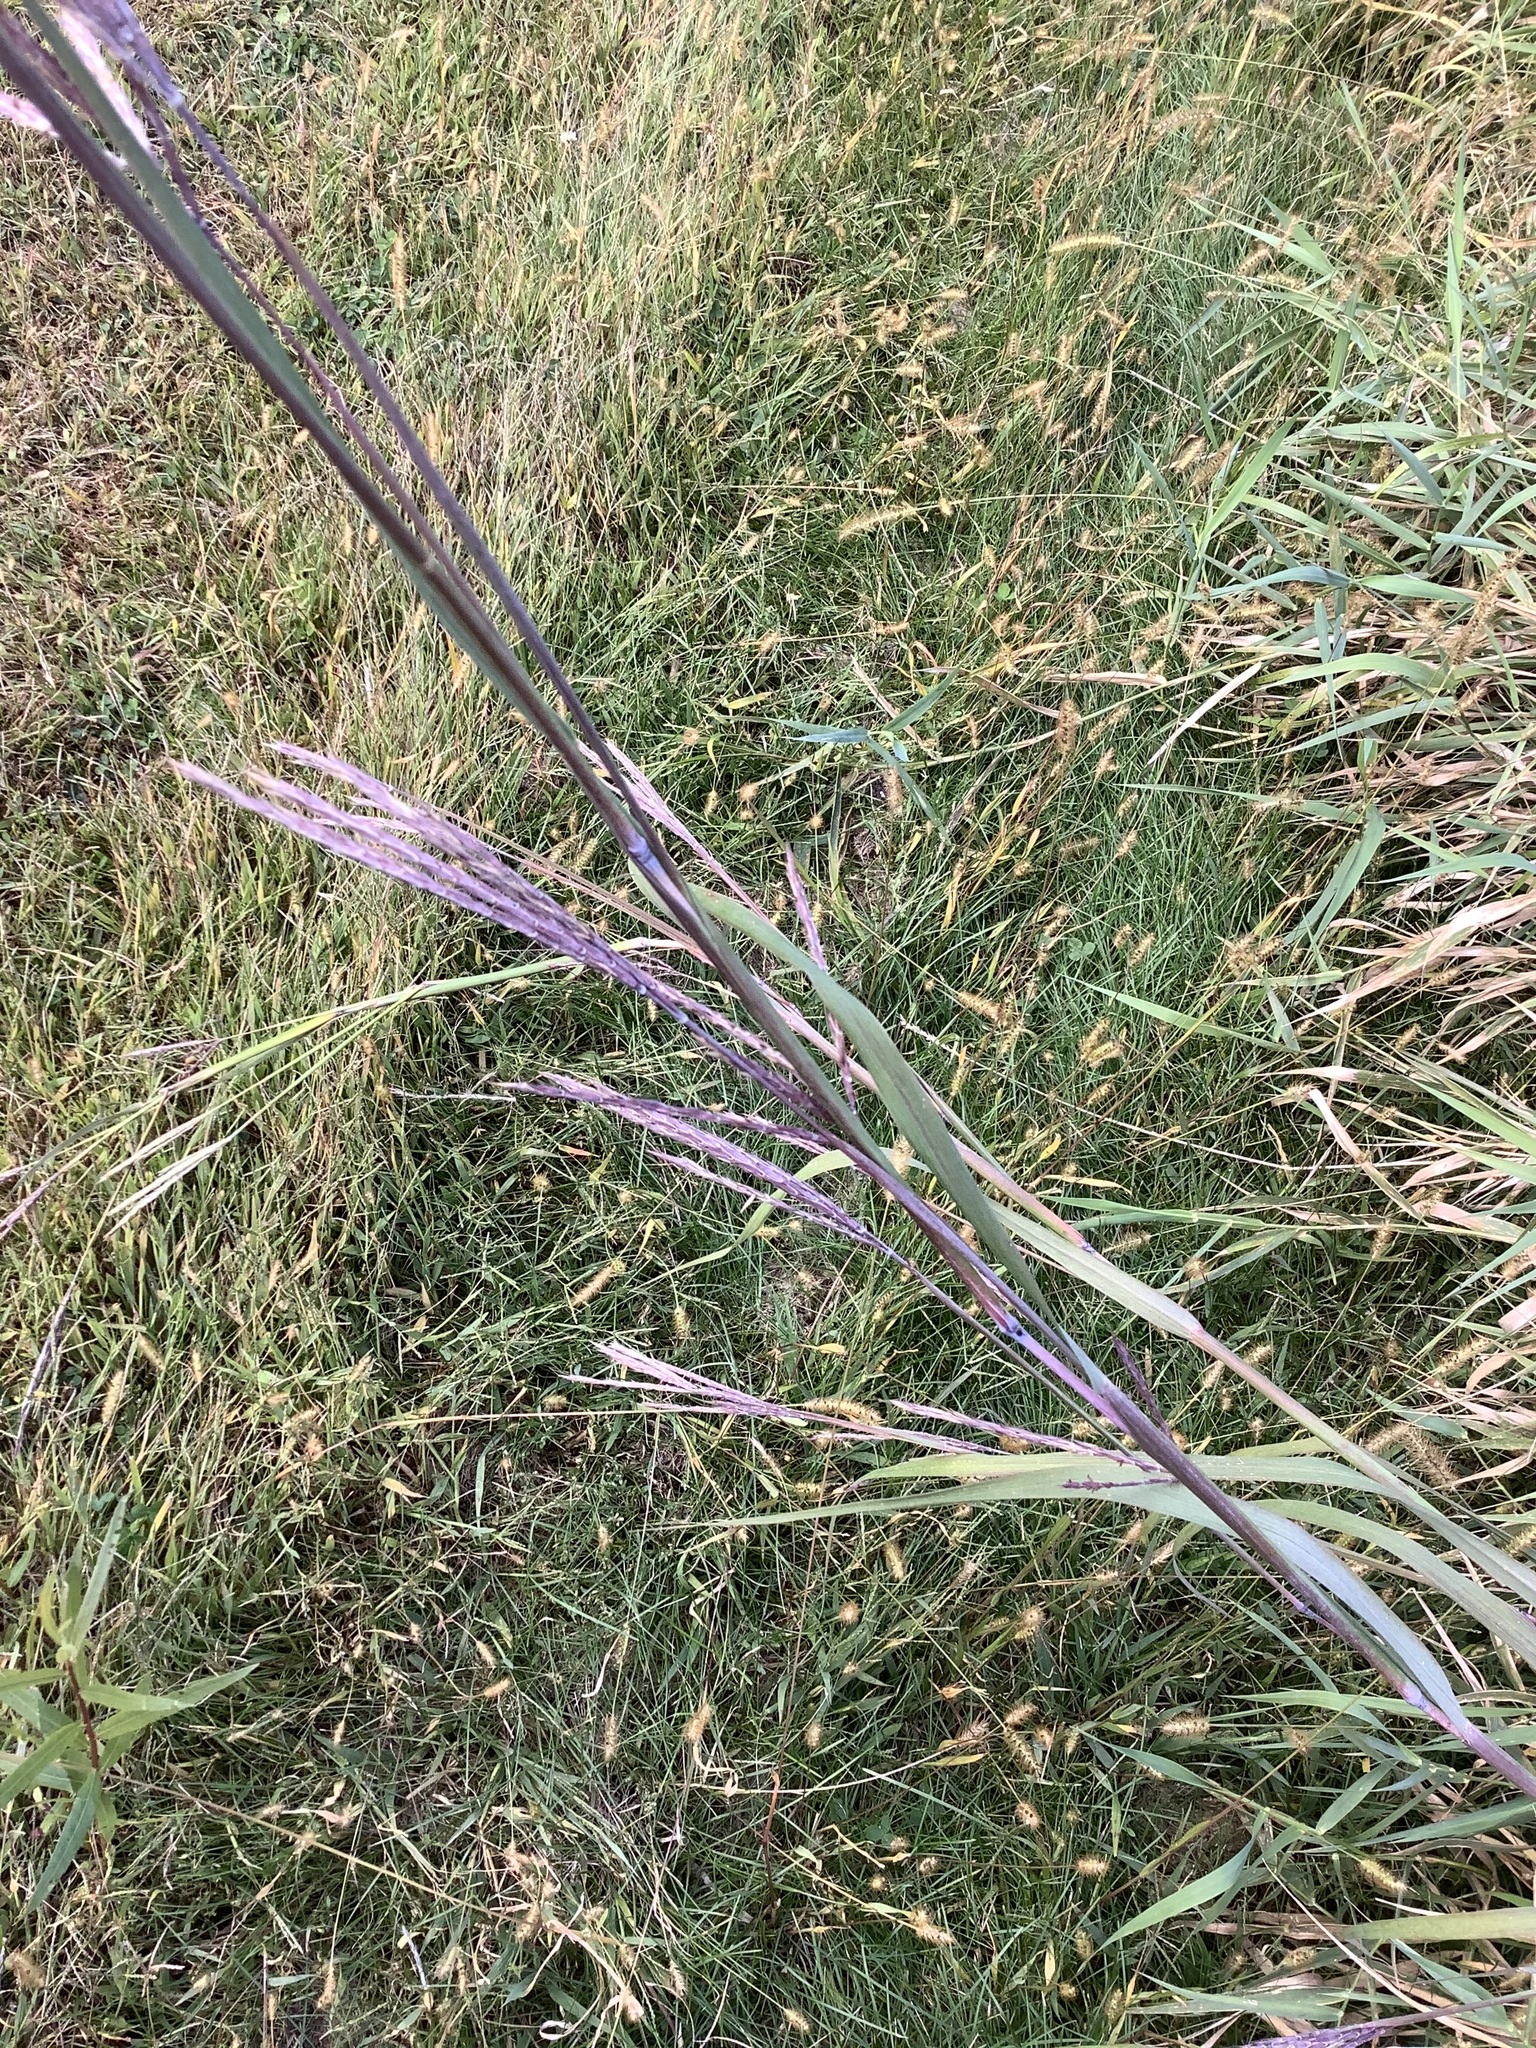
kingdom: Plantae
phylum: Tracheophyta
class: Liliopsida
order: Poales
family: Poaceae
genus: Andropogon
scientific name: Andropogon gerardi
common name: Big bluestem
